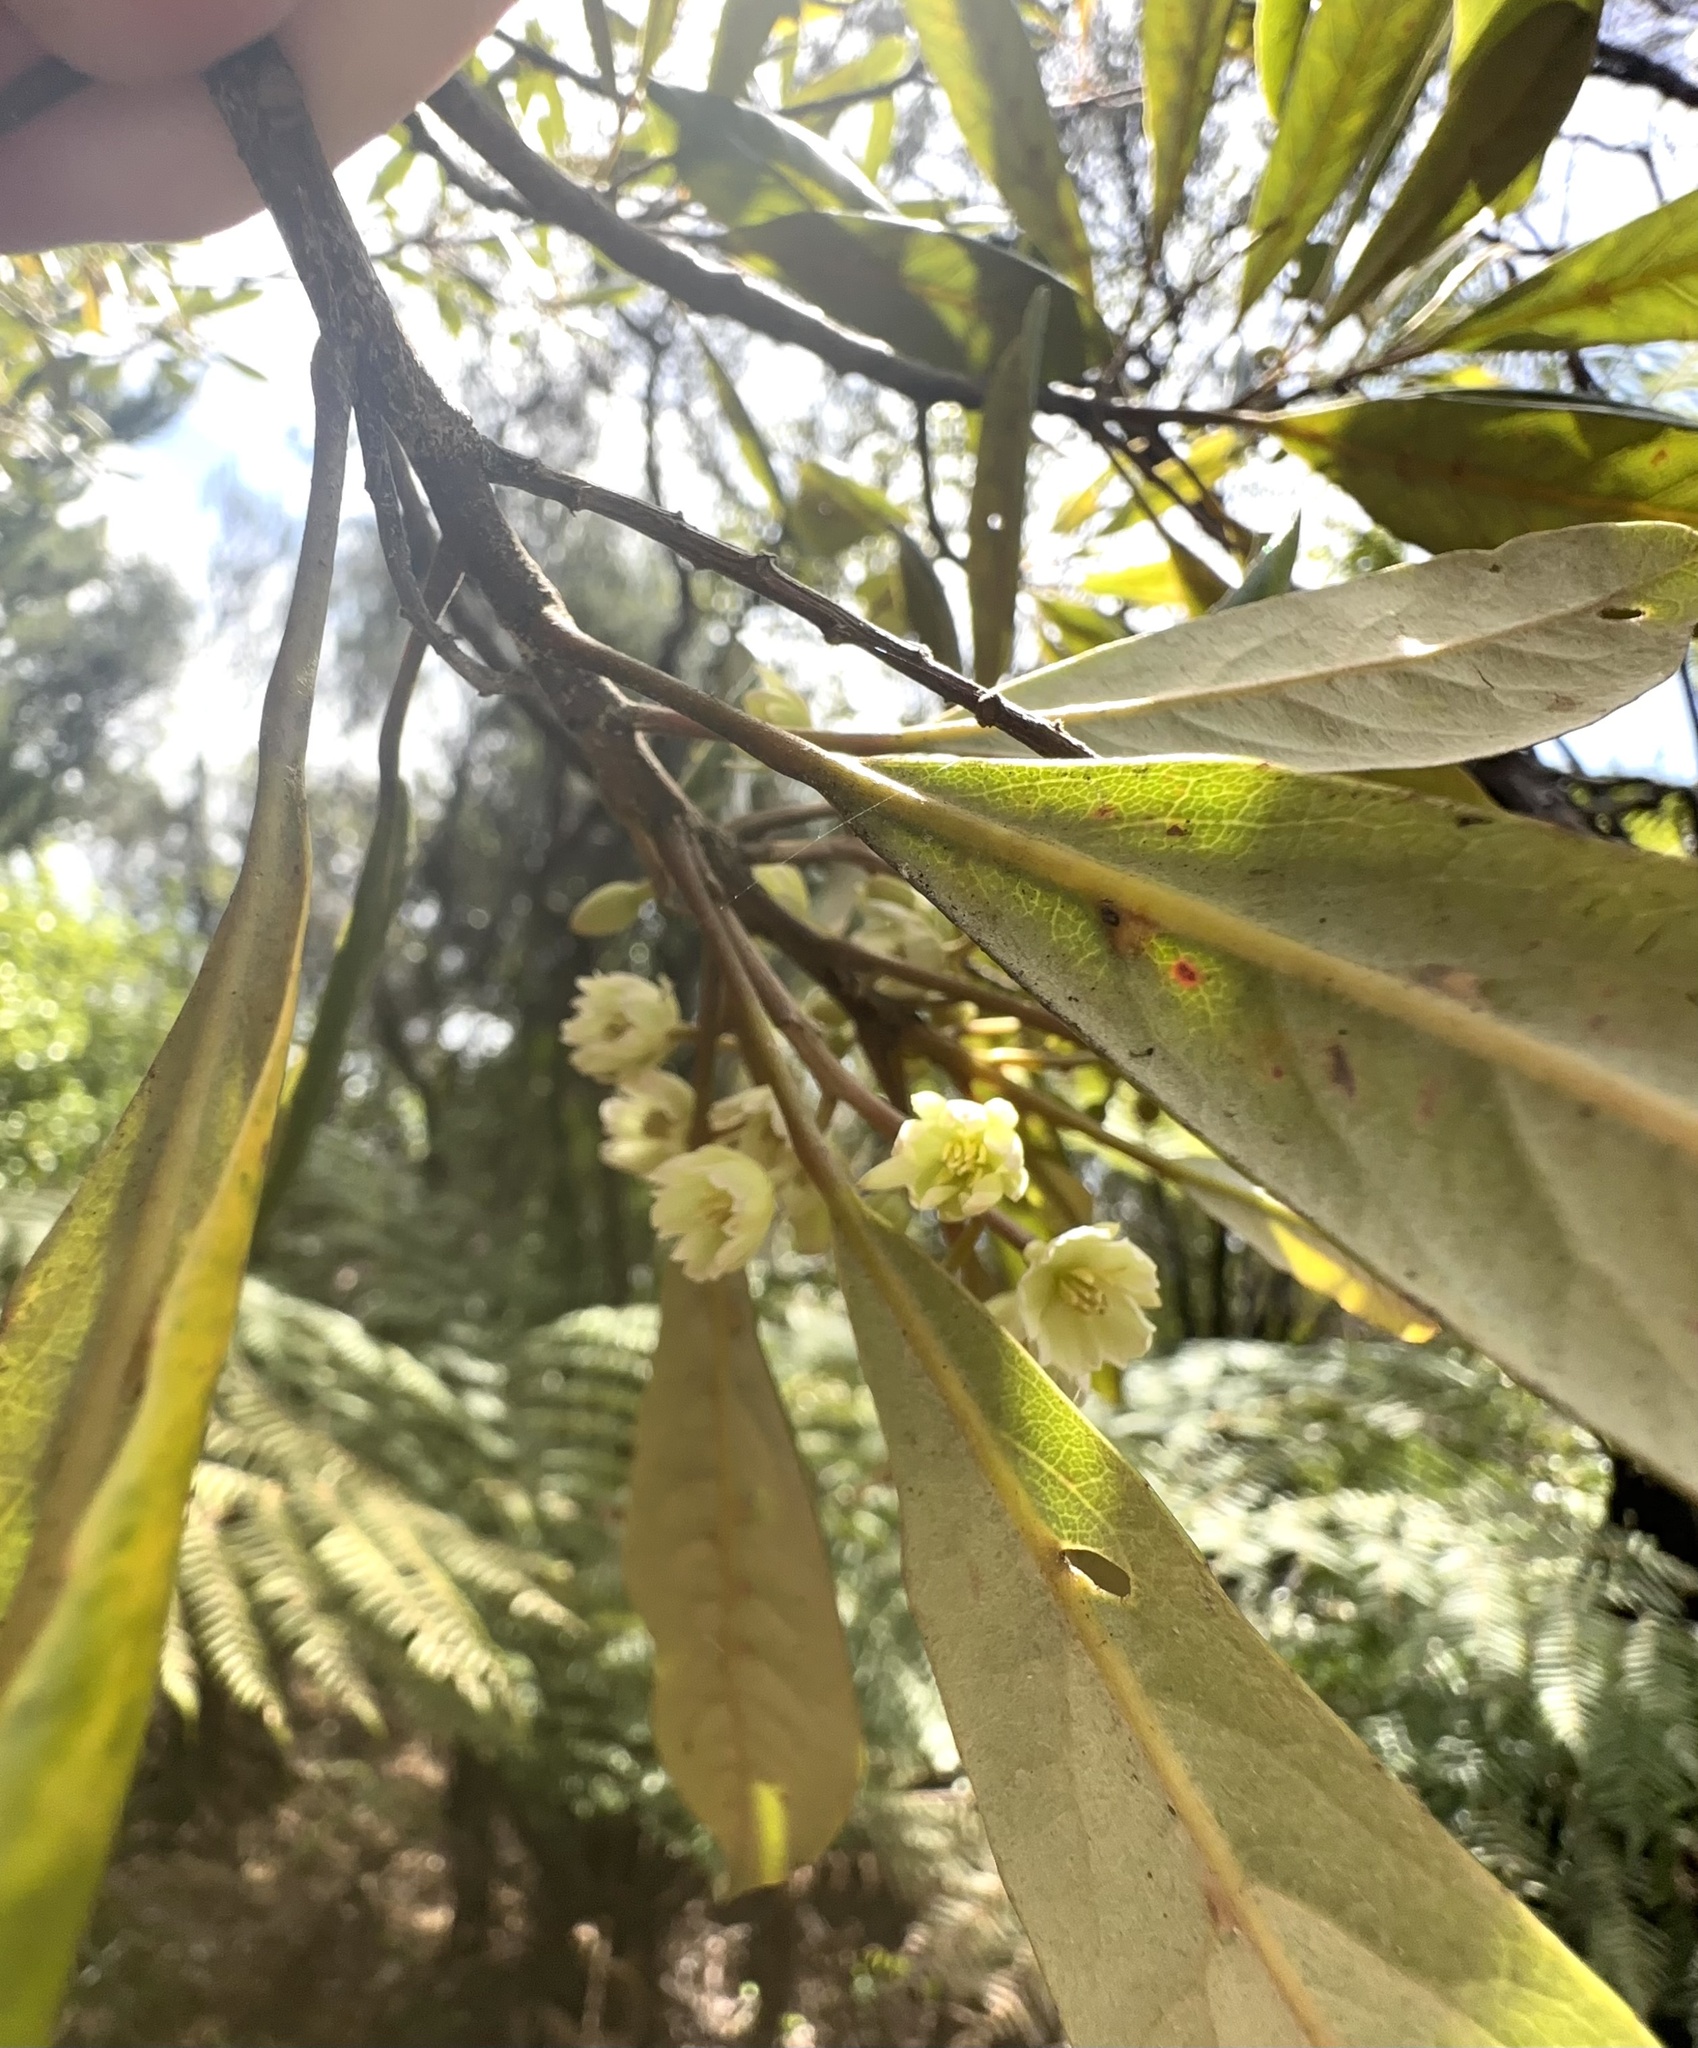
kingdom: Plantae
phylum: Tracheophyta
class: Magnoliopsida
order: Oxalidales
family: Elaeocarpaceae
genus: Elaeocarpus
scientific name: Elaeocarpus dentatus
